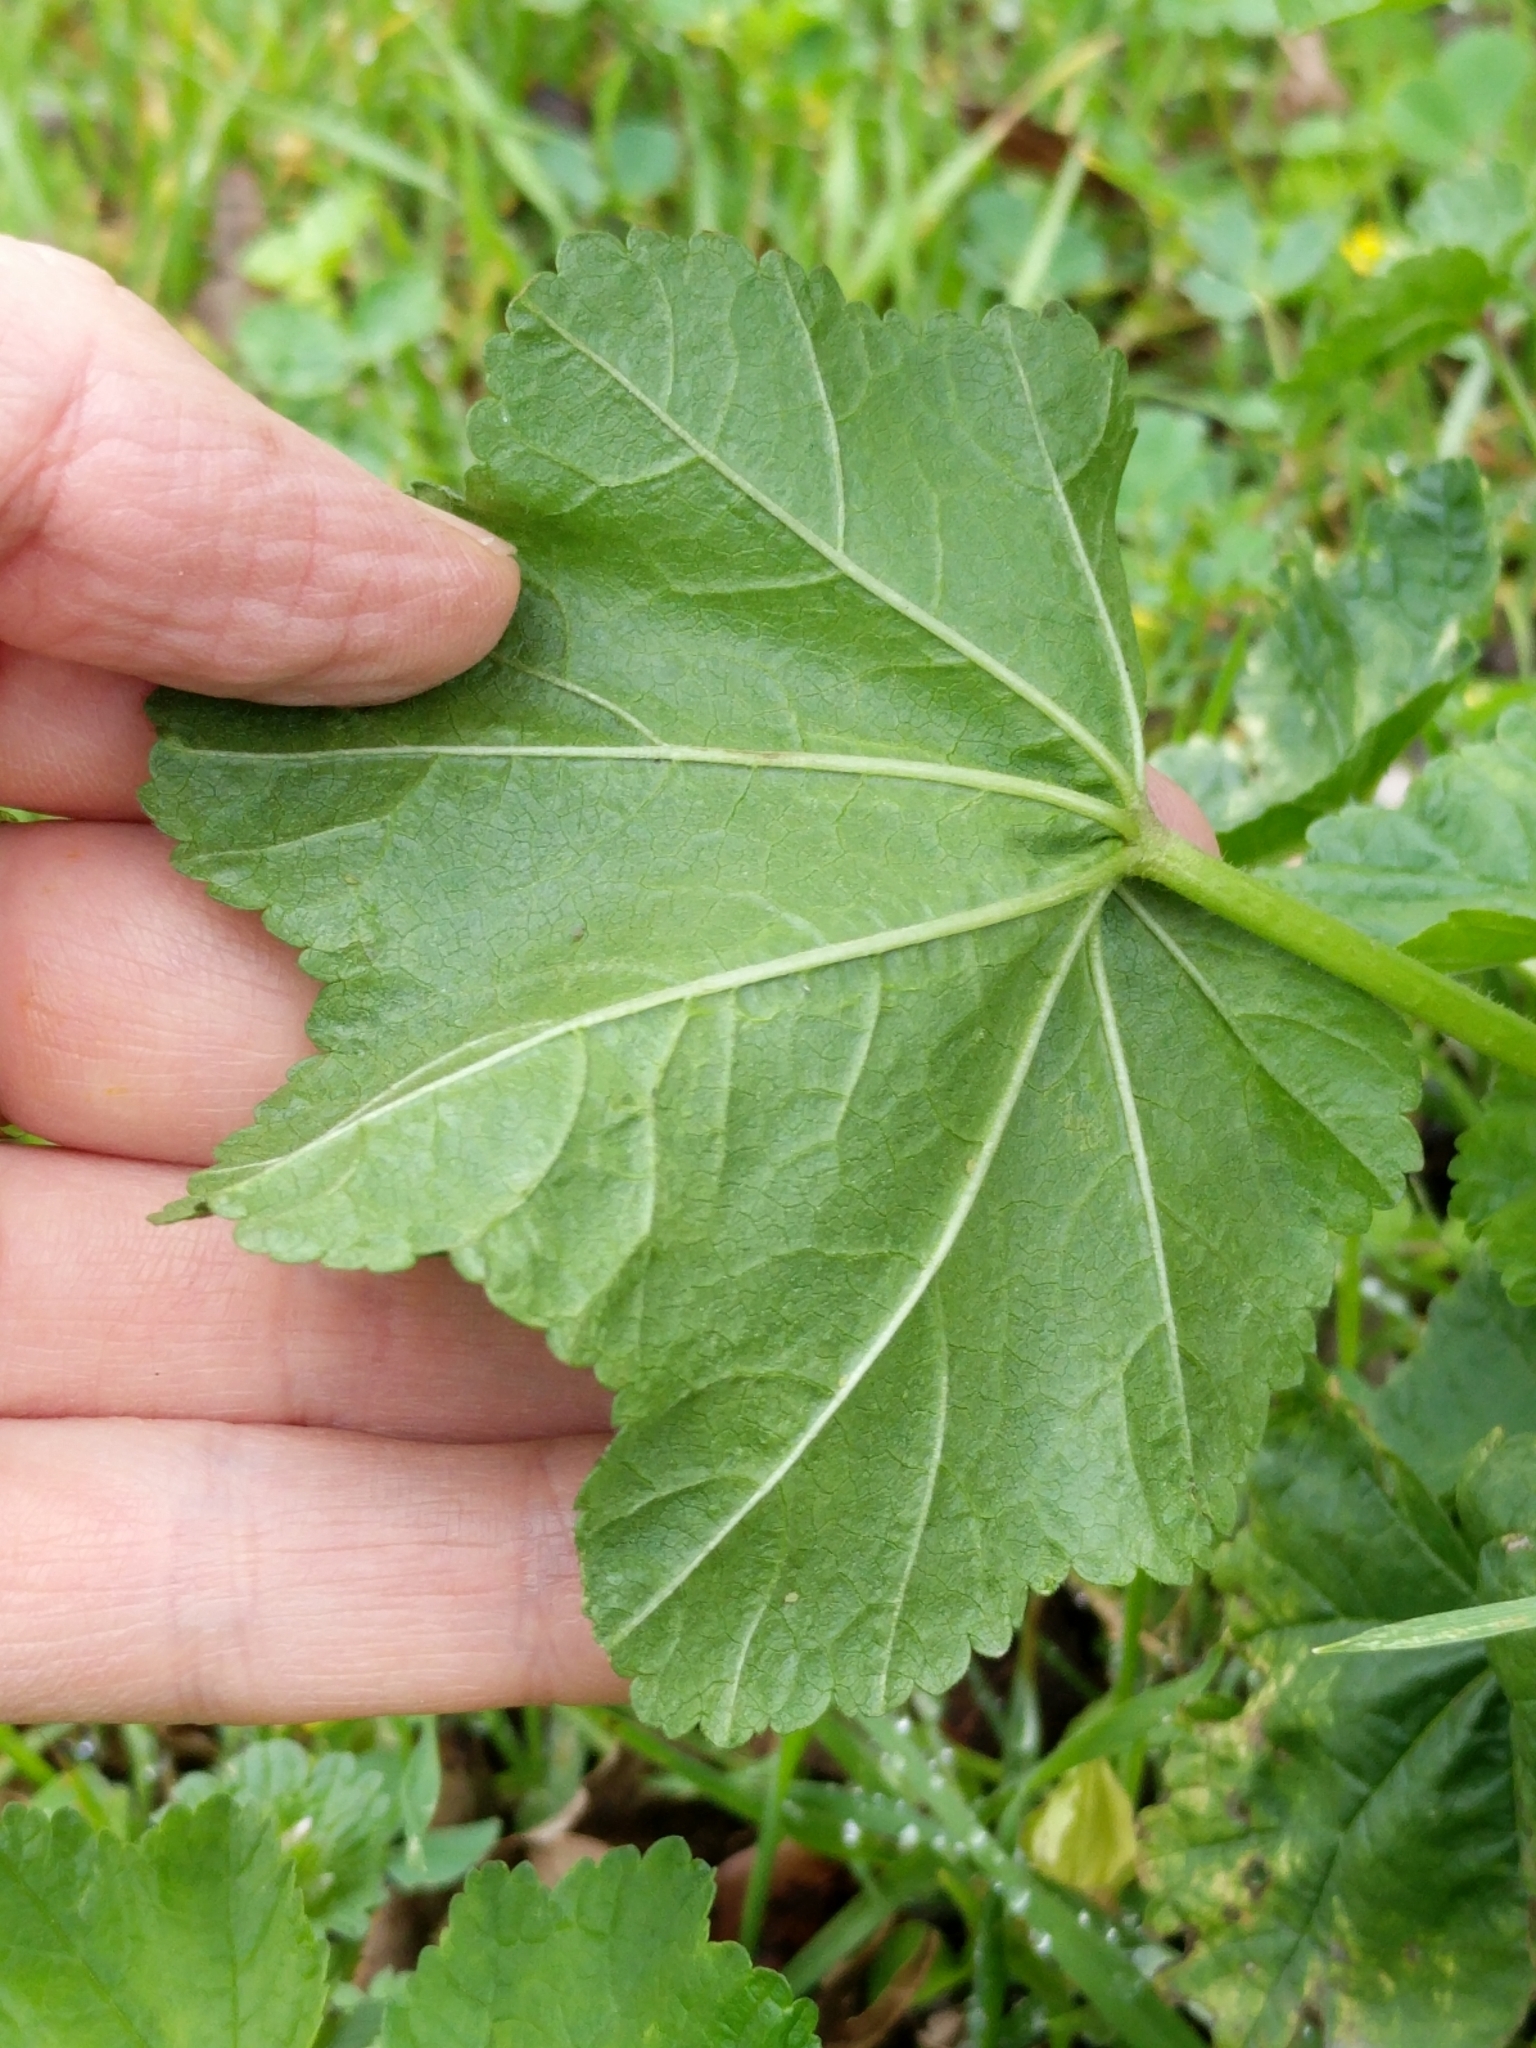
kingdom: Plantae
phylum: Tracheophyta
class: Magnoliopsida
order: Malvales
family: Malvaceae
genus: Malva
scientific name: Malva sylvestris
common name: Common mallow
